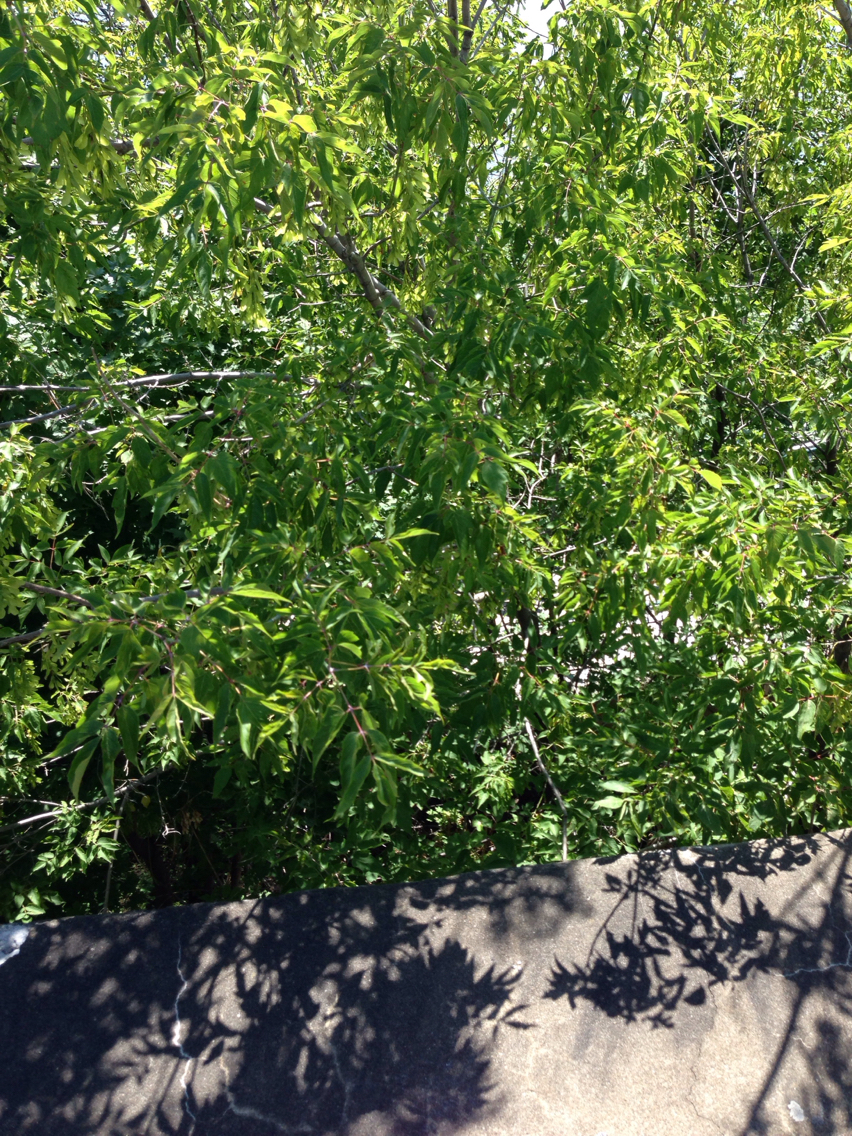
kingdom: Plantae
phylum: Tracheophyta
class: Magnoliopsida
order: Sapindales
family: Sapindaceae
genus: Acer
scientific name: Acer negundo
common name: Ashleaf maple
